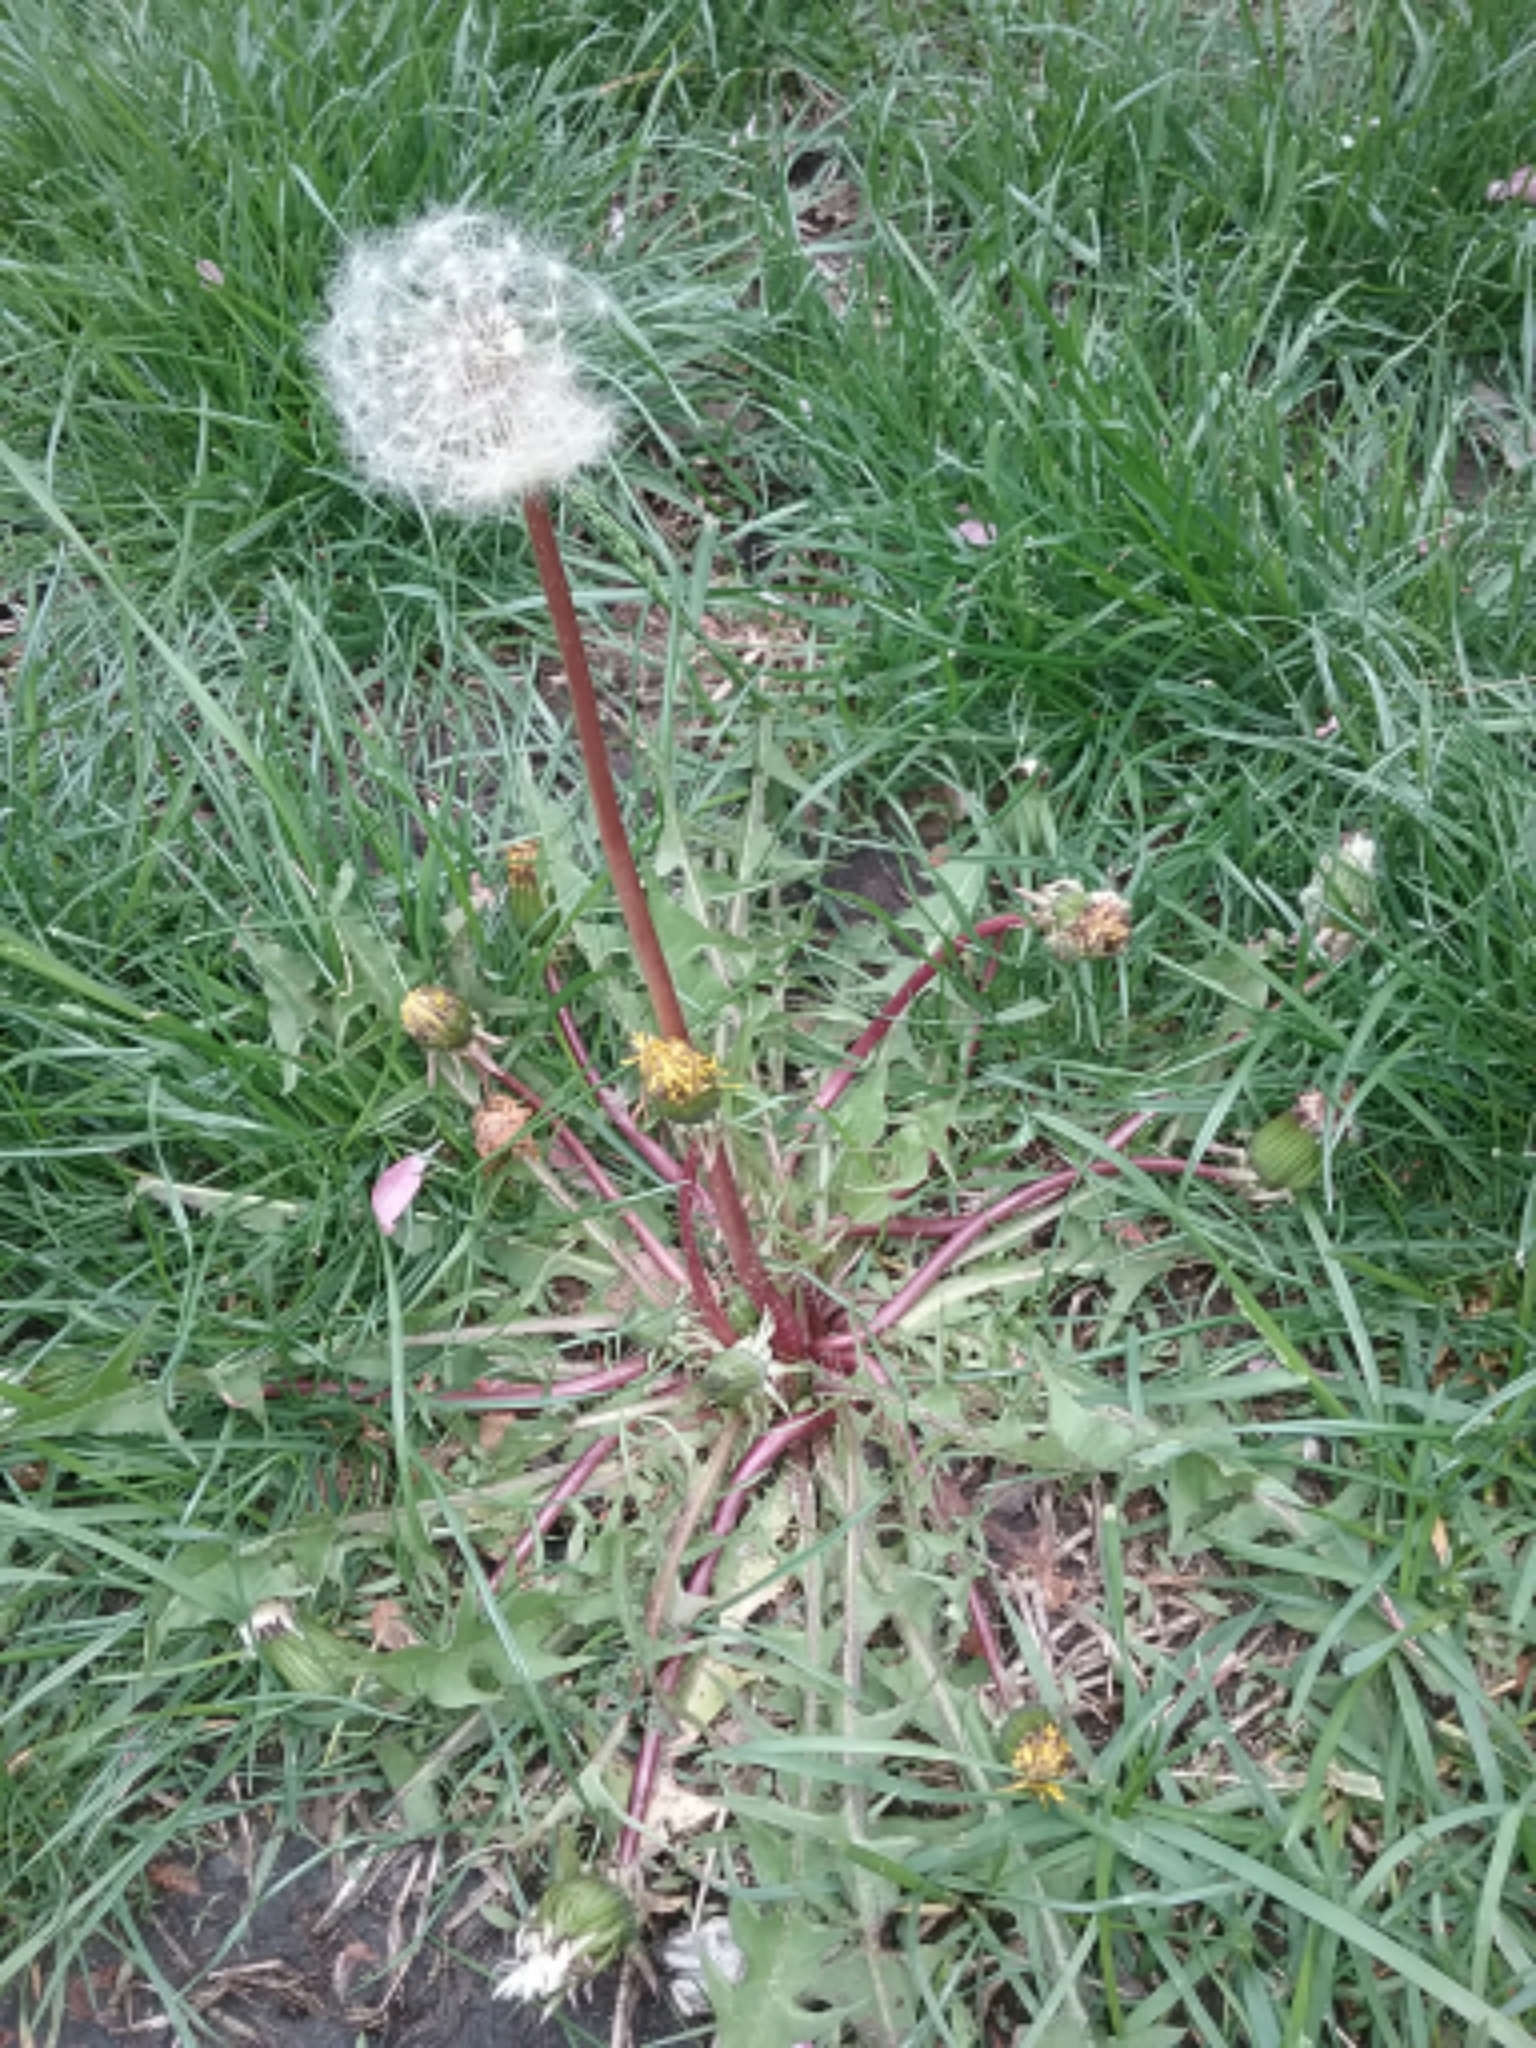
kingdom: Plantae
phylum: Tracheophyta
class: Magnoliopsida
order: Asterales
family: Asteraceae
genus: Taraxacum
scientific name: Taraxacum officinale
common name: Common dandelion
